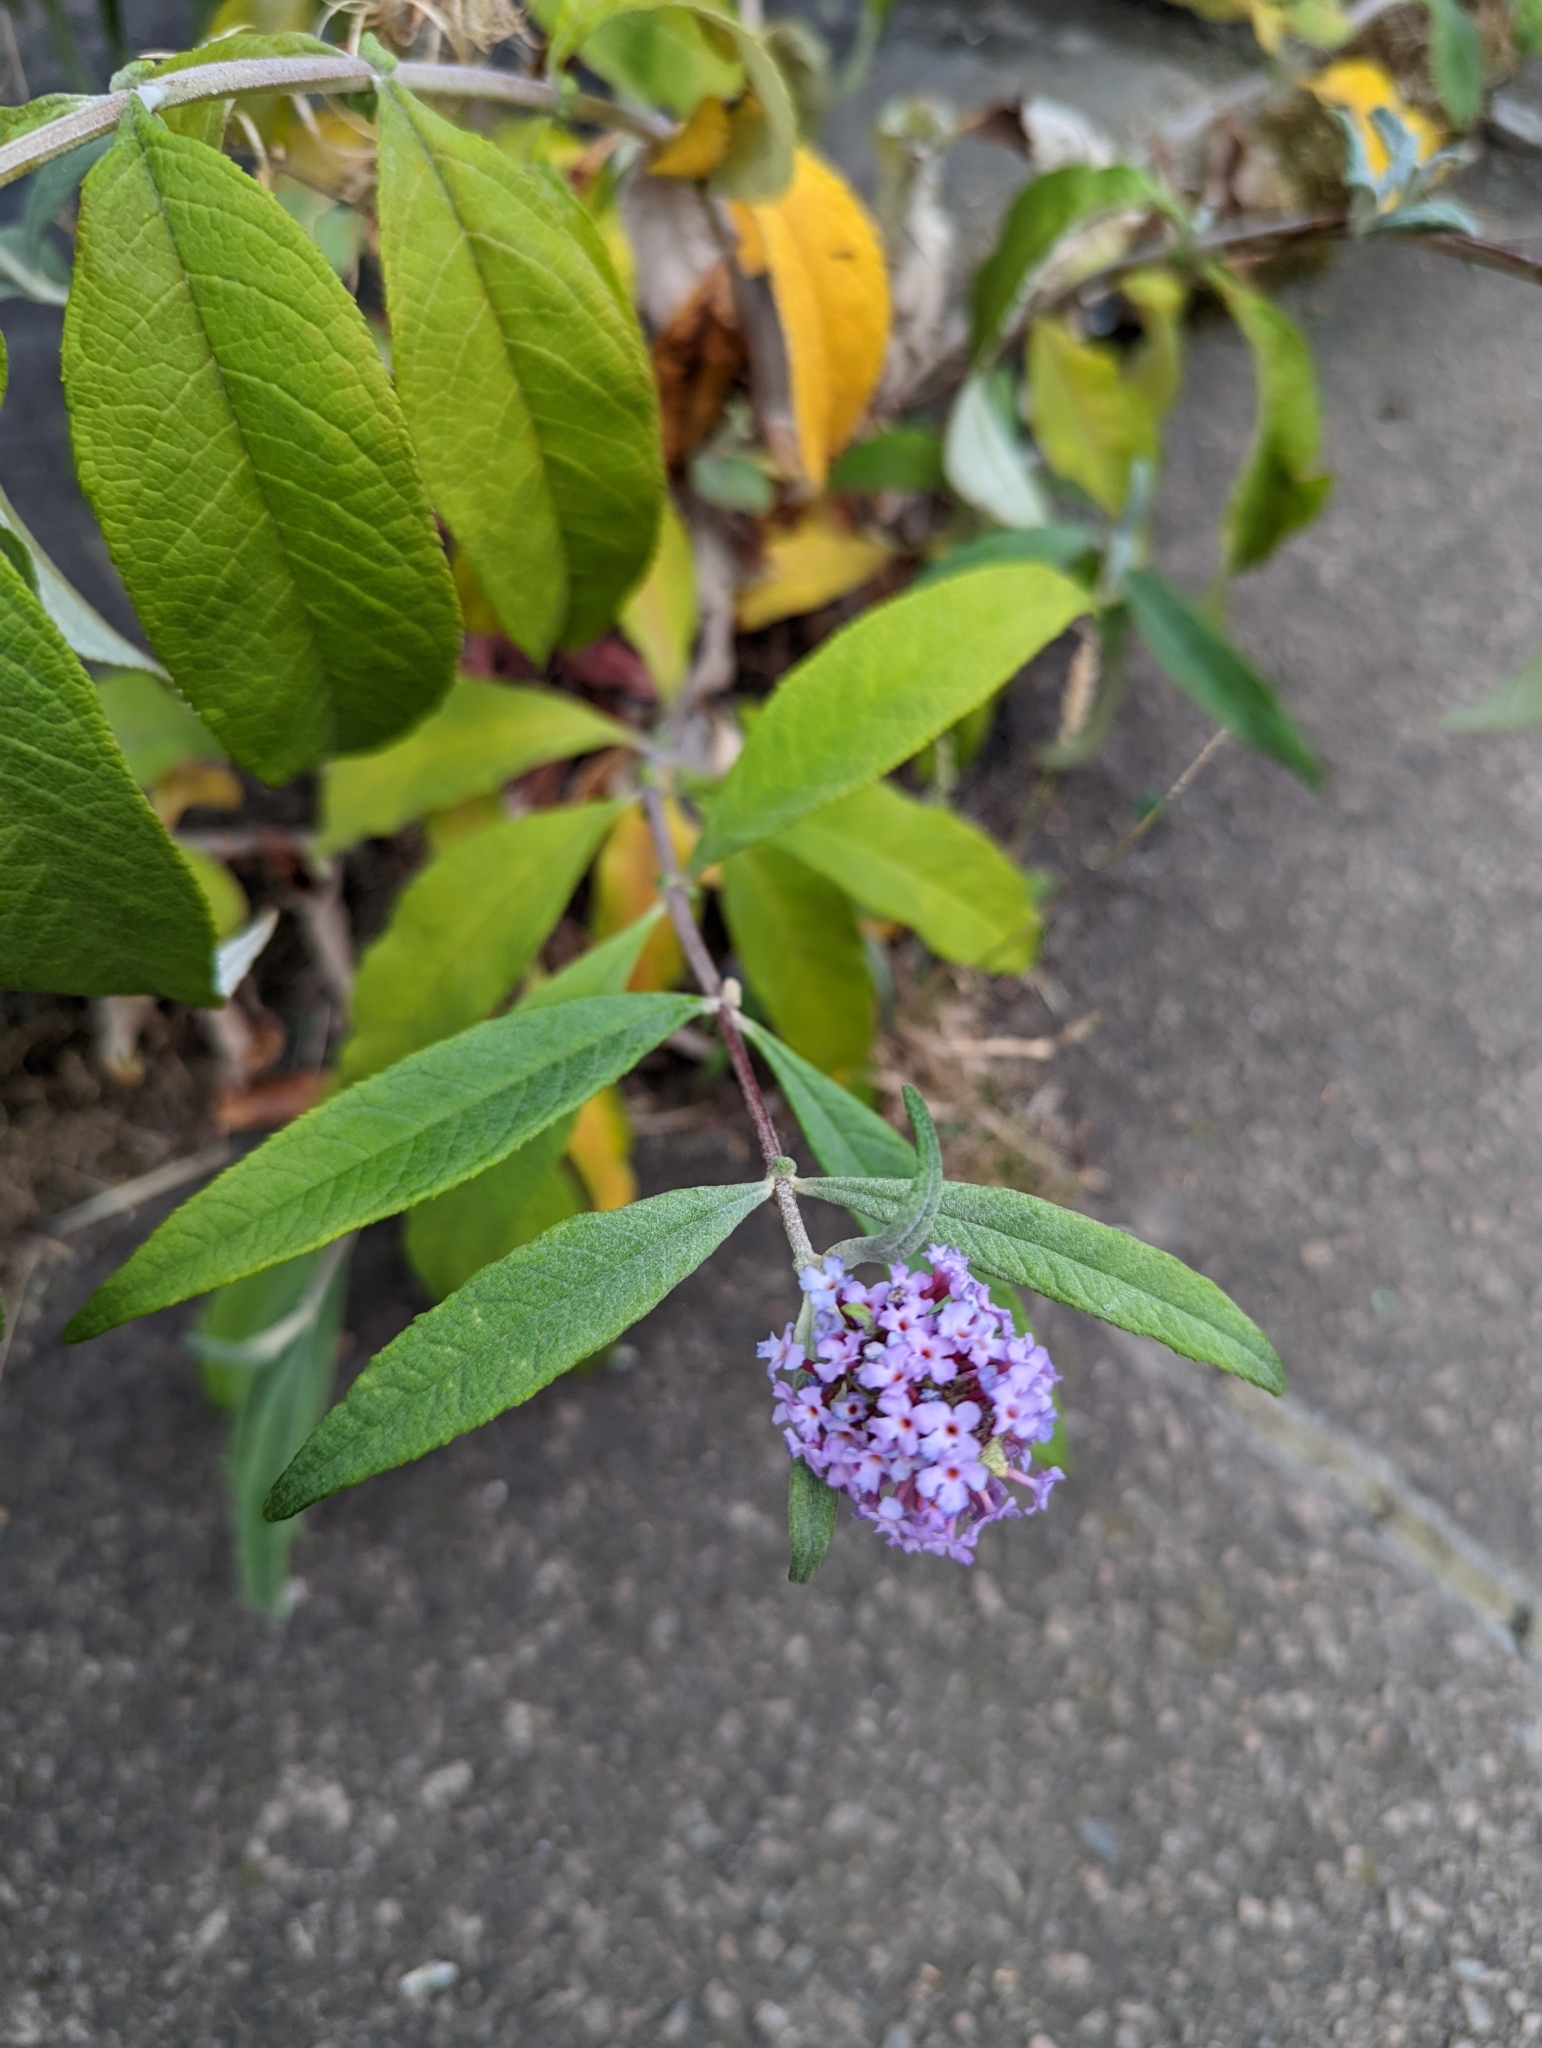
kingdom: Plantae
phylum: Tracheophyta
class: Magnoliopsida
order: Lamiales
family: Scrophulariaceae
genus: Buddleja
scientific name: Buddleja davidii
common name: Butterfly-bush
